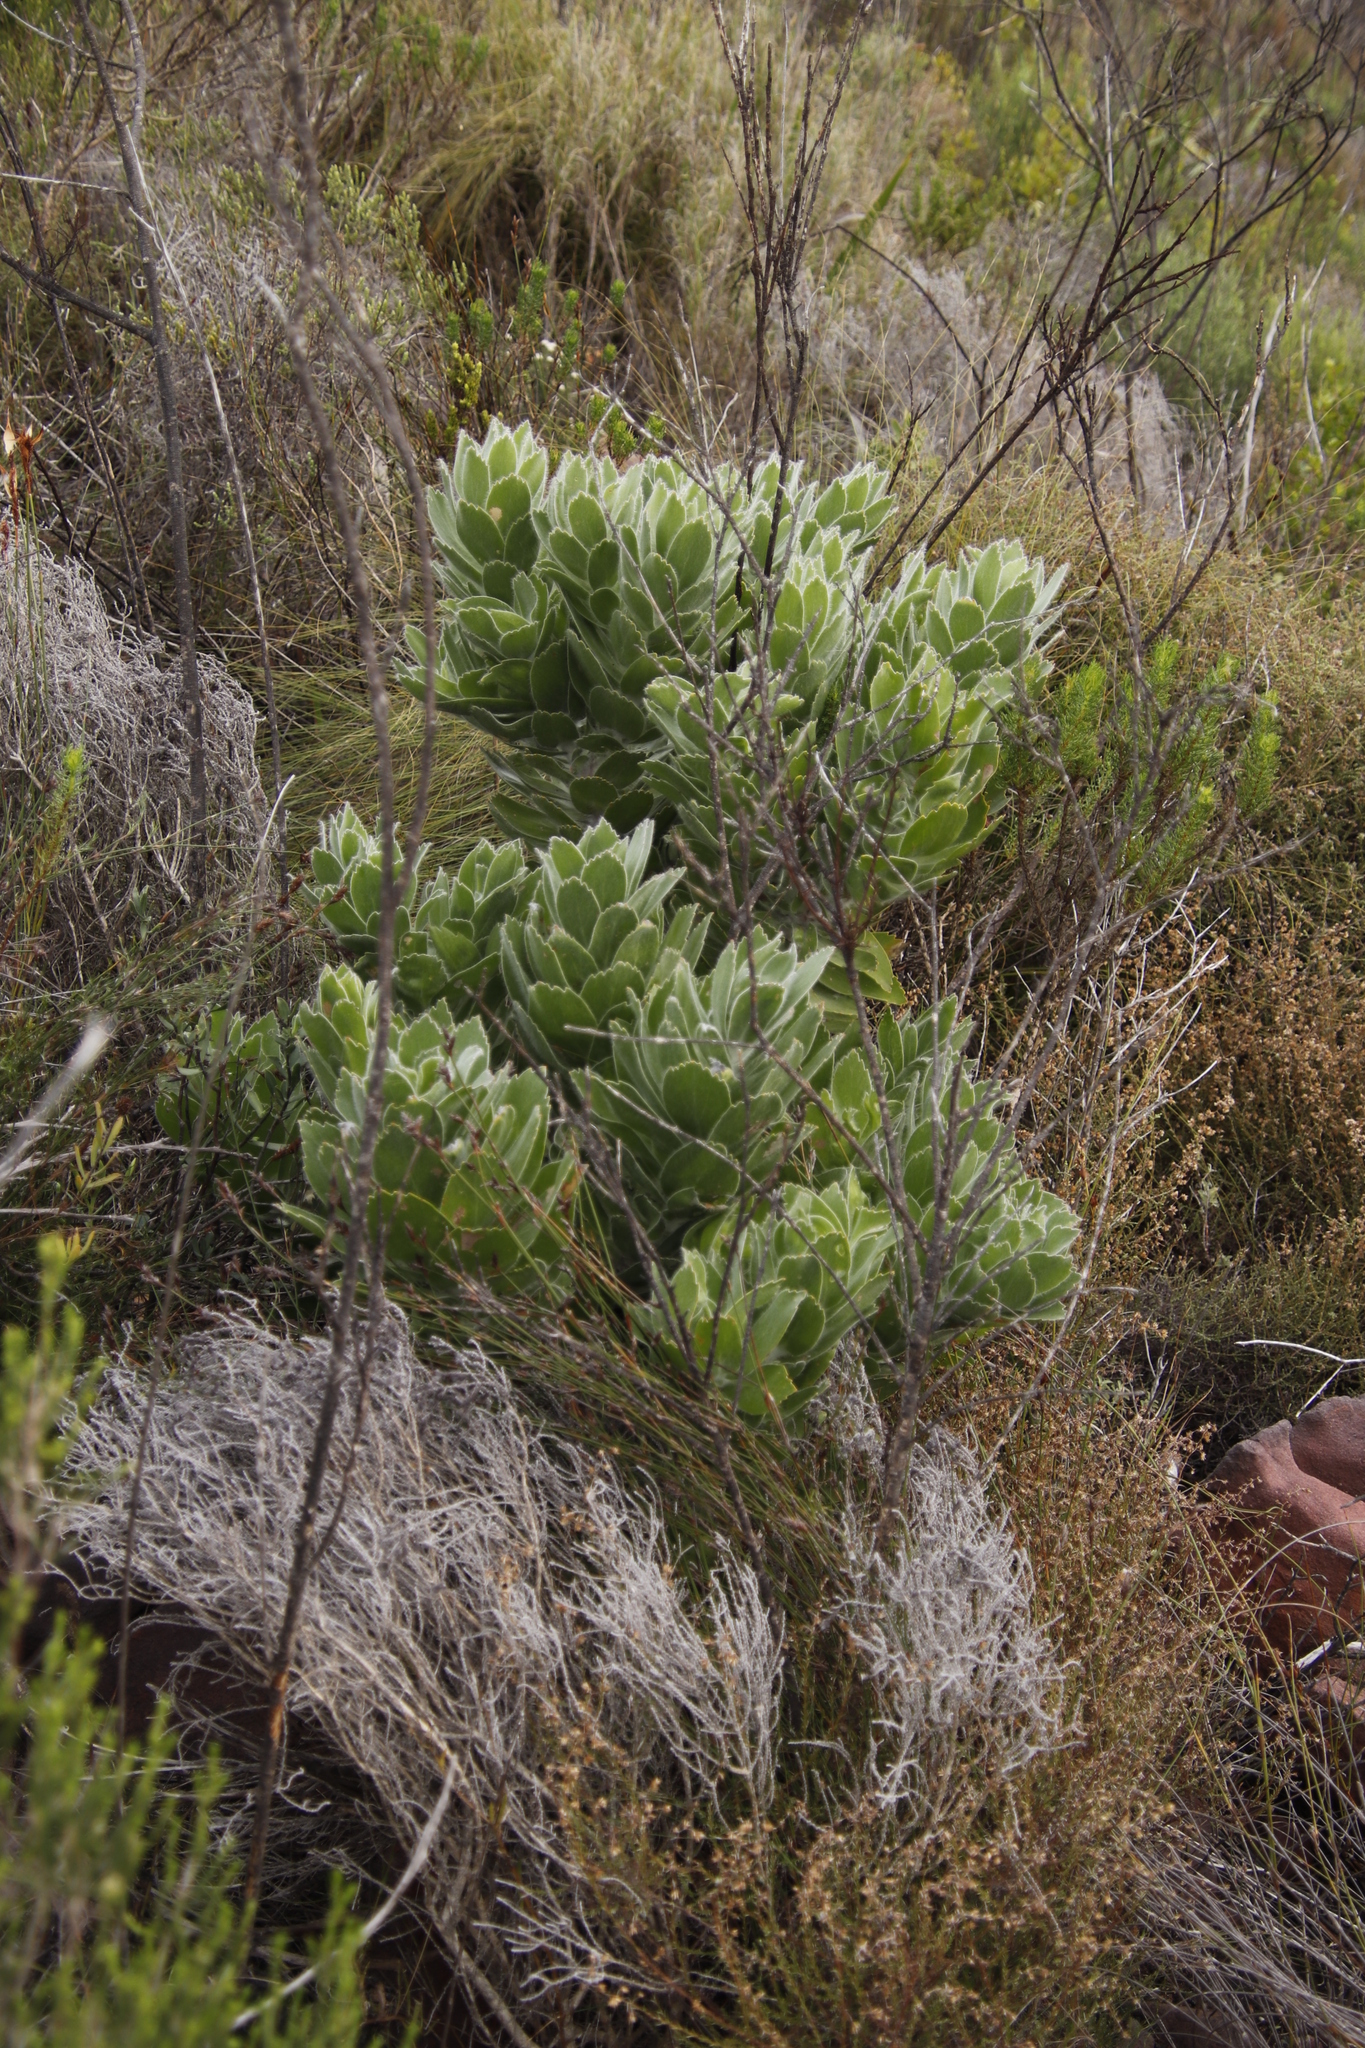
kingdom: Plantae
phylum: Tracheophyta
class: Magnoliopsida
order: Proteales
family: Proteaceae
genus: Leucospermum
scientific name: Leucospermum conocarpodendron
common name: Tree pincushion
